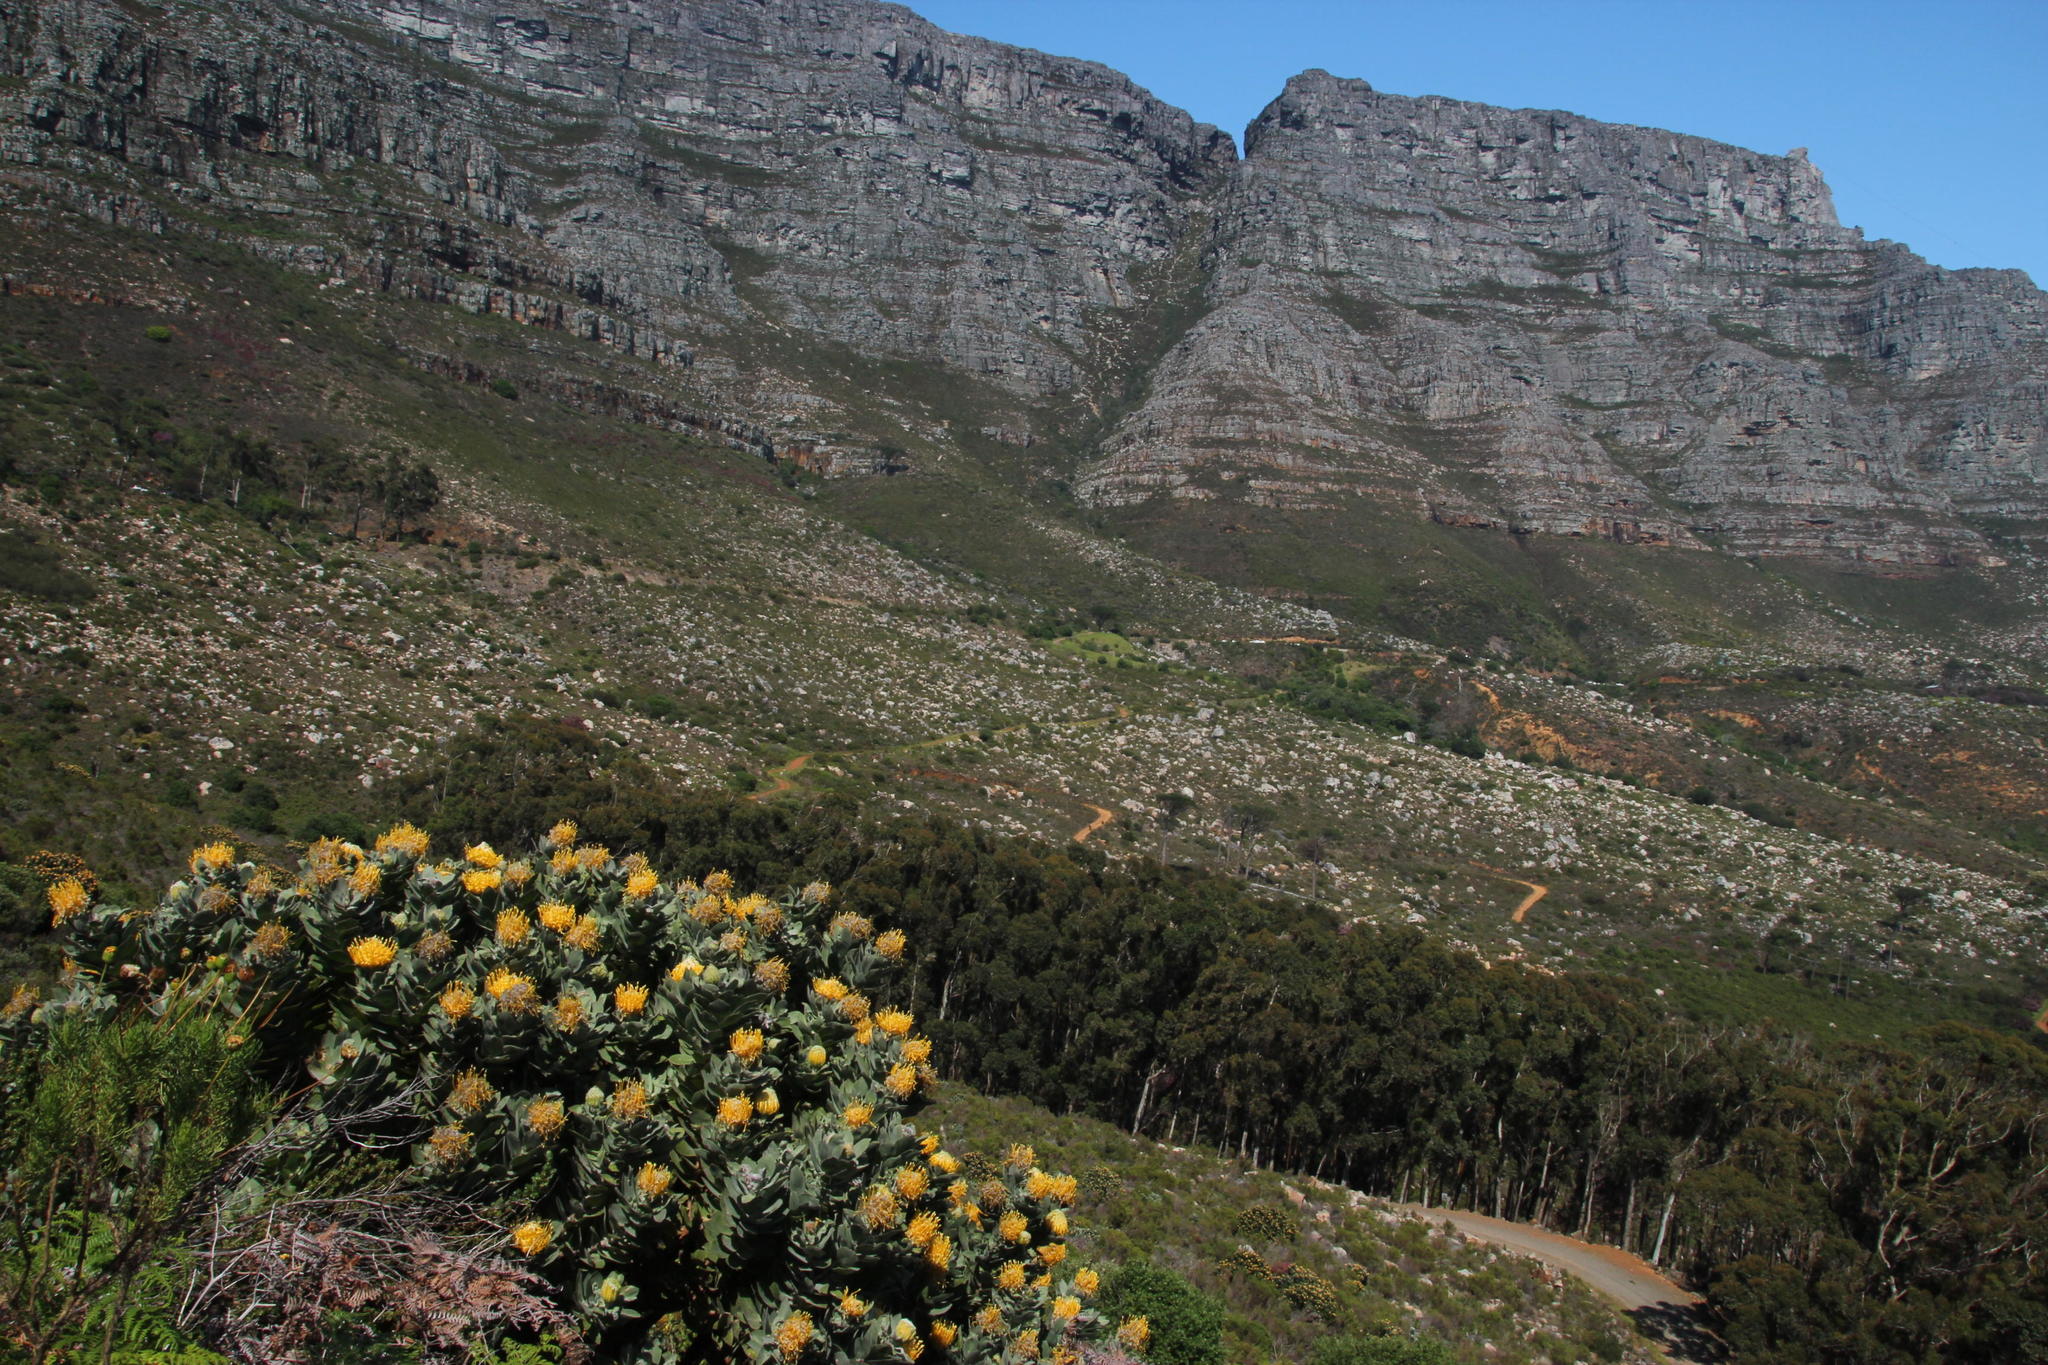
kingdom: Plantae
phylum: Tracheophyta
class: Magnoliopsida
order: Proteales
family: Proteaceae
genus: Leucospermum
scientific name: Leucospermum conocarpodendron
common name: Tree pincushion
